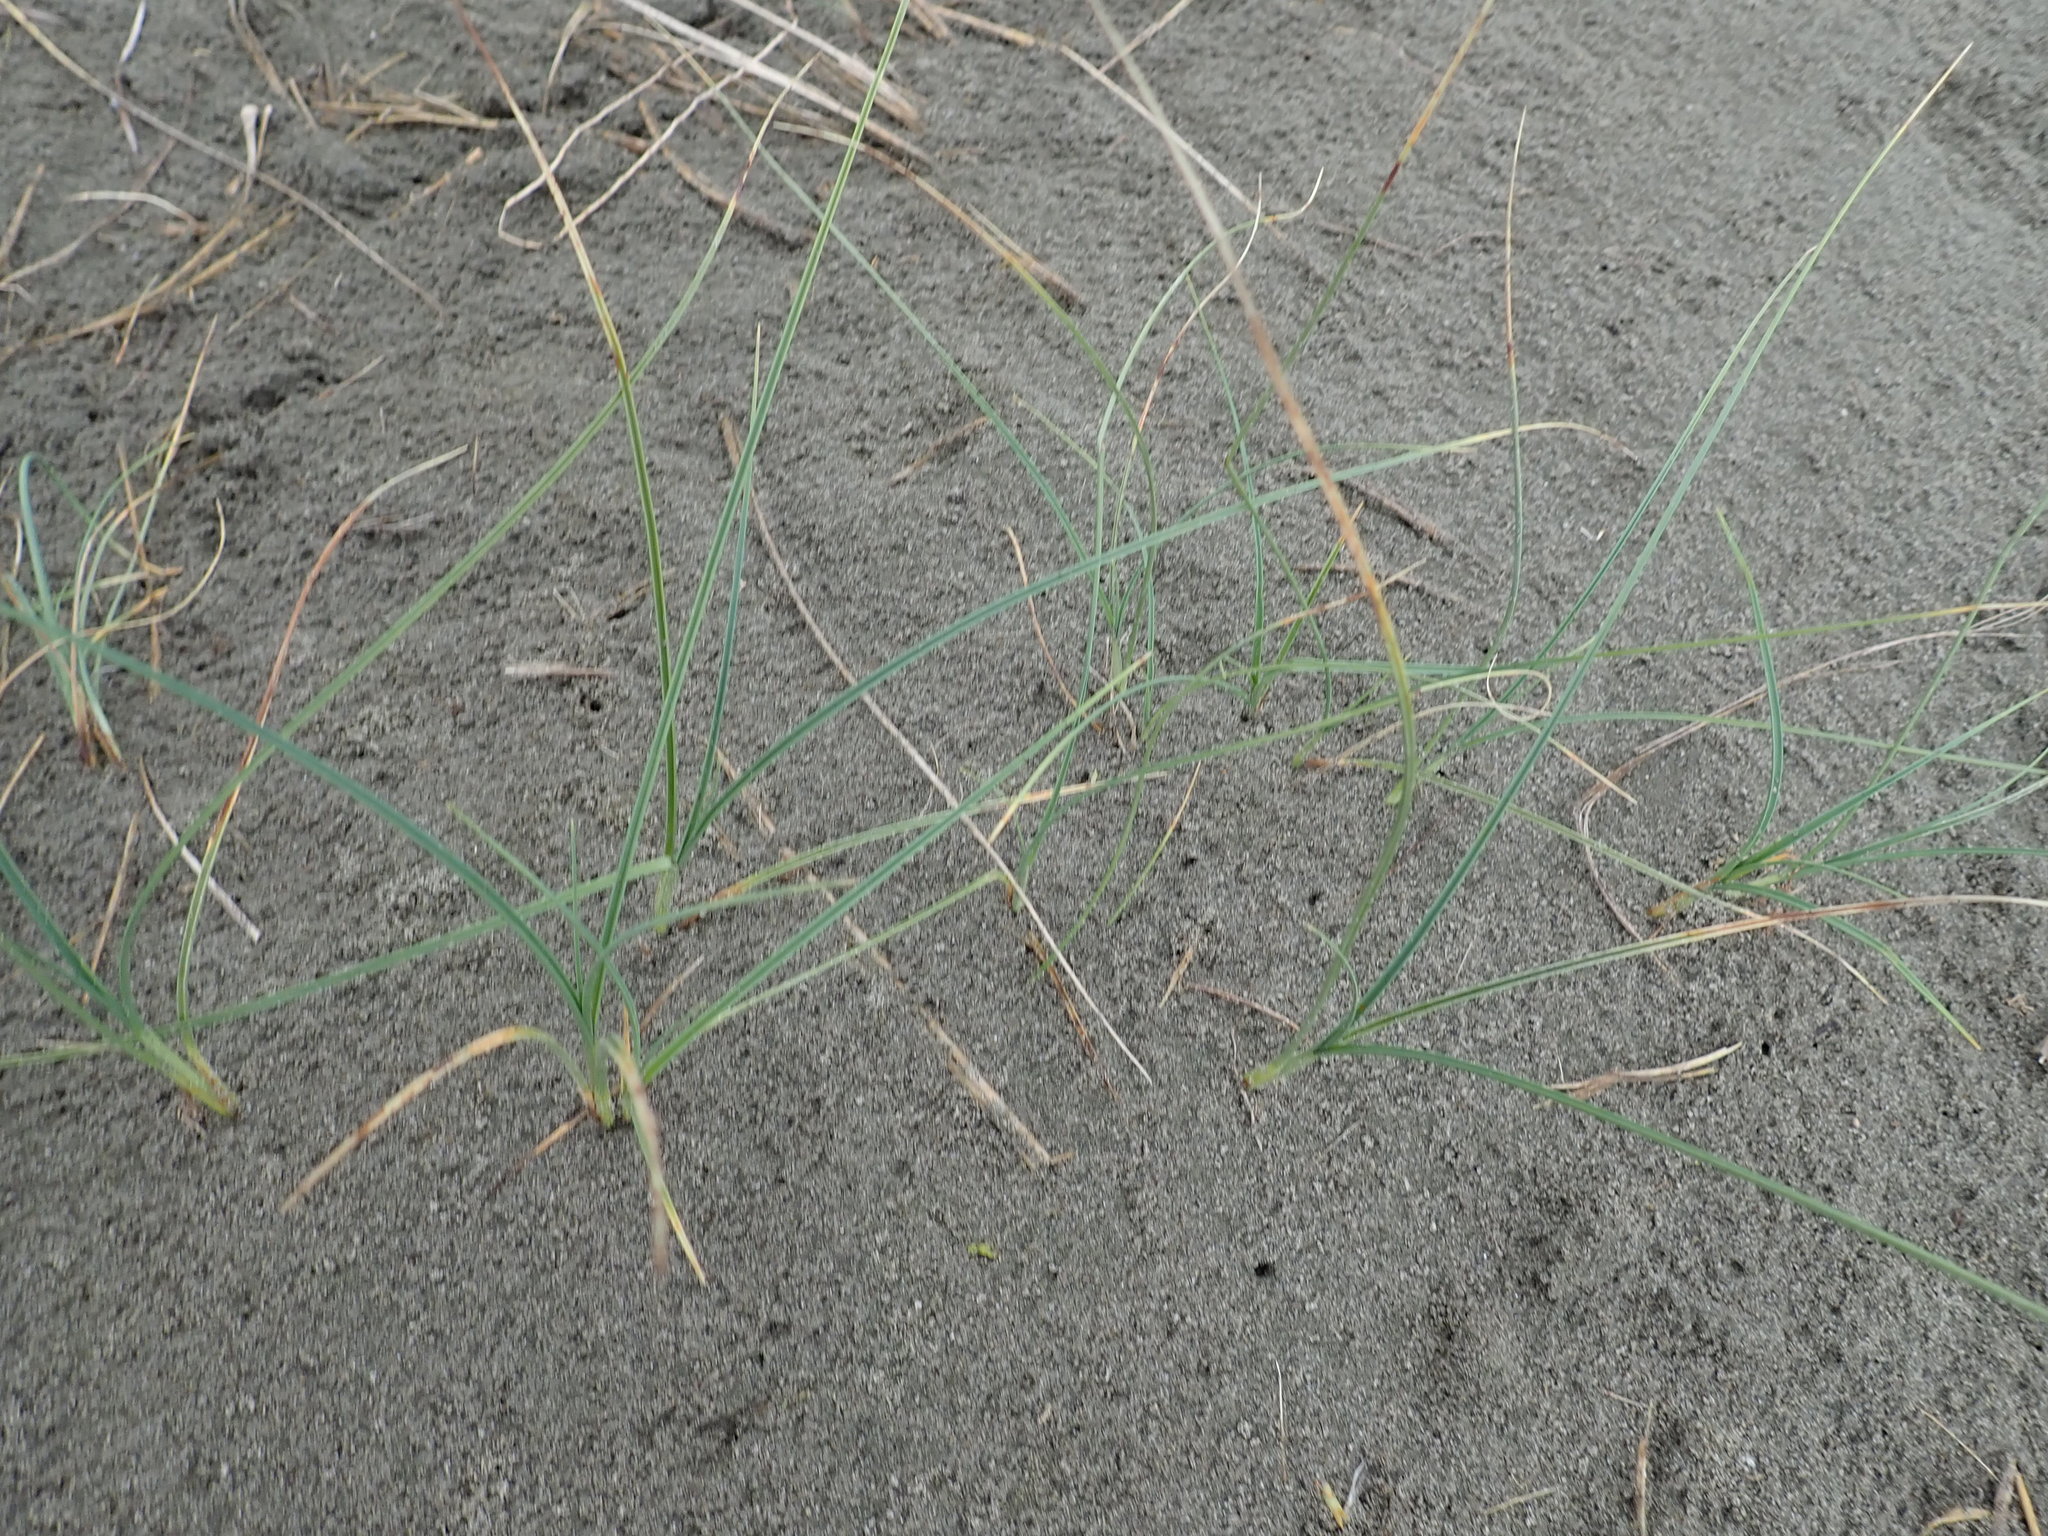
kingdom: Plantae
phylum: Tracheophyta
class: Liliopsida
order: Poales
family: Cyperaceae
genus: Carex
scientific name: Carex pumila
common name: Dwarf sedge
